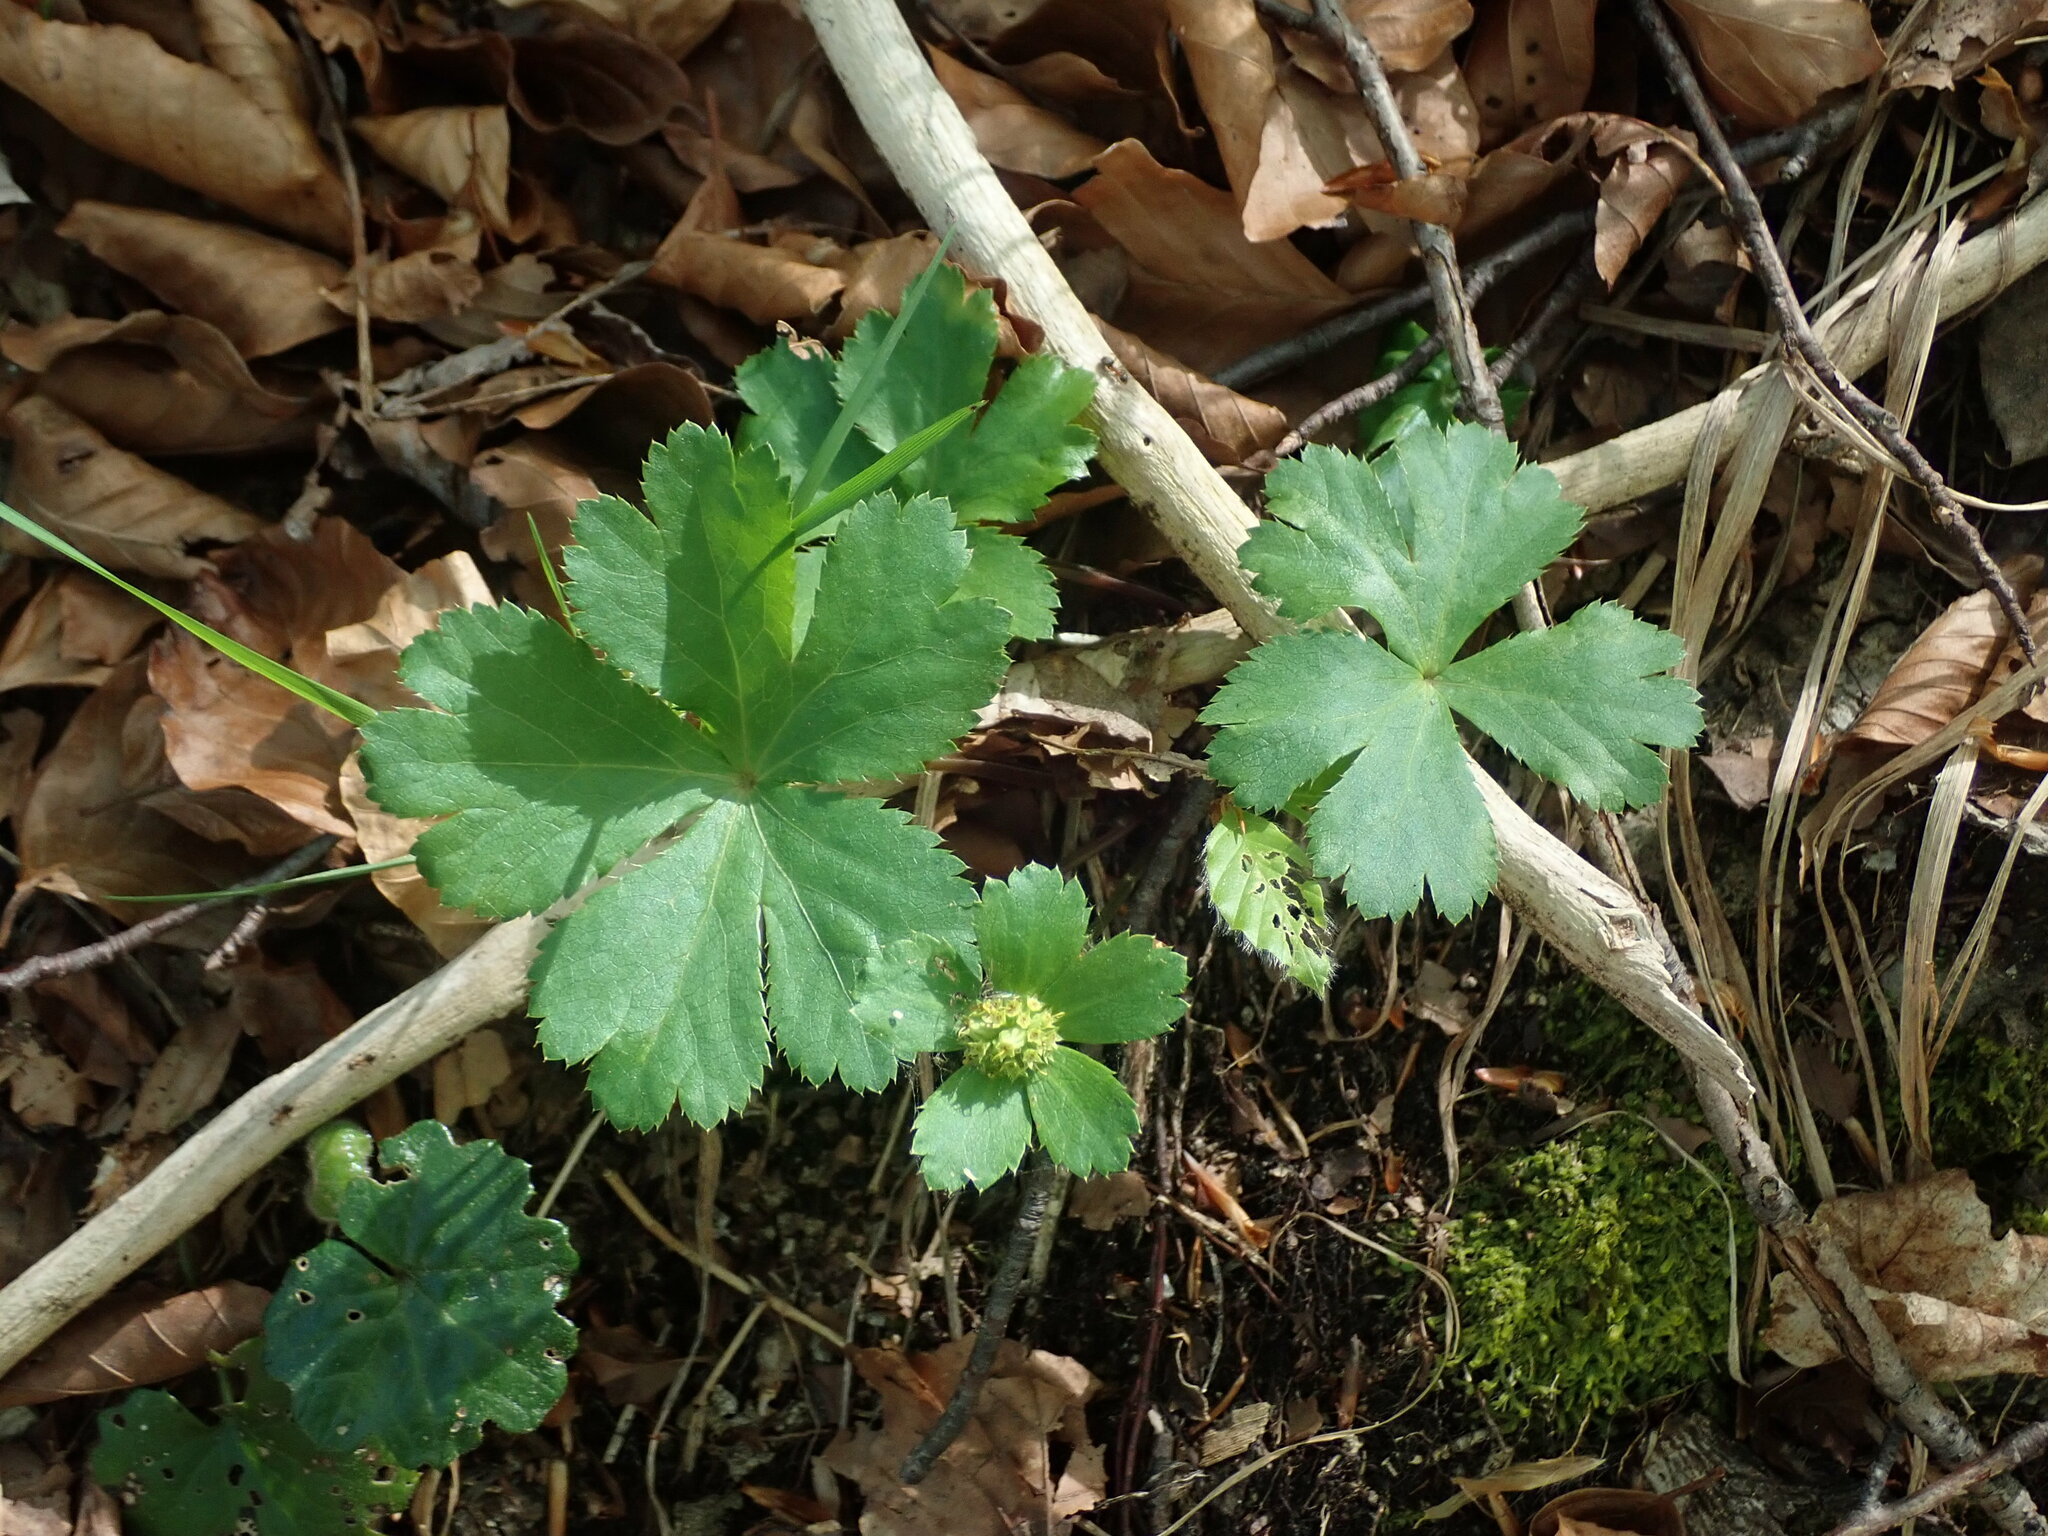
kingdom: Plantae
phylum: Tracheophyta
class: Magnoliopsida
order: Apiales
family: Apiaceae
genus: Sanicula
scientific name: Sanicula epipactis
